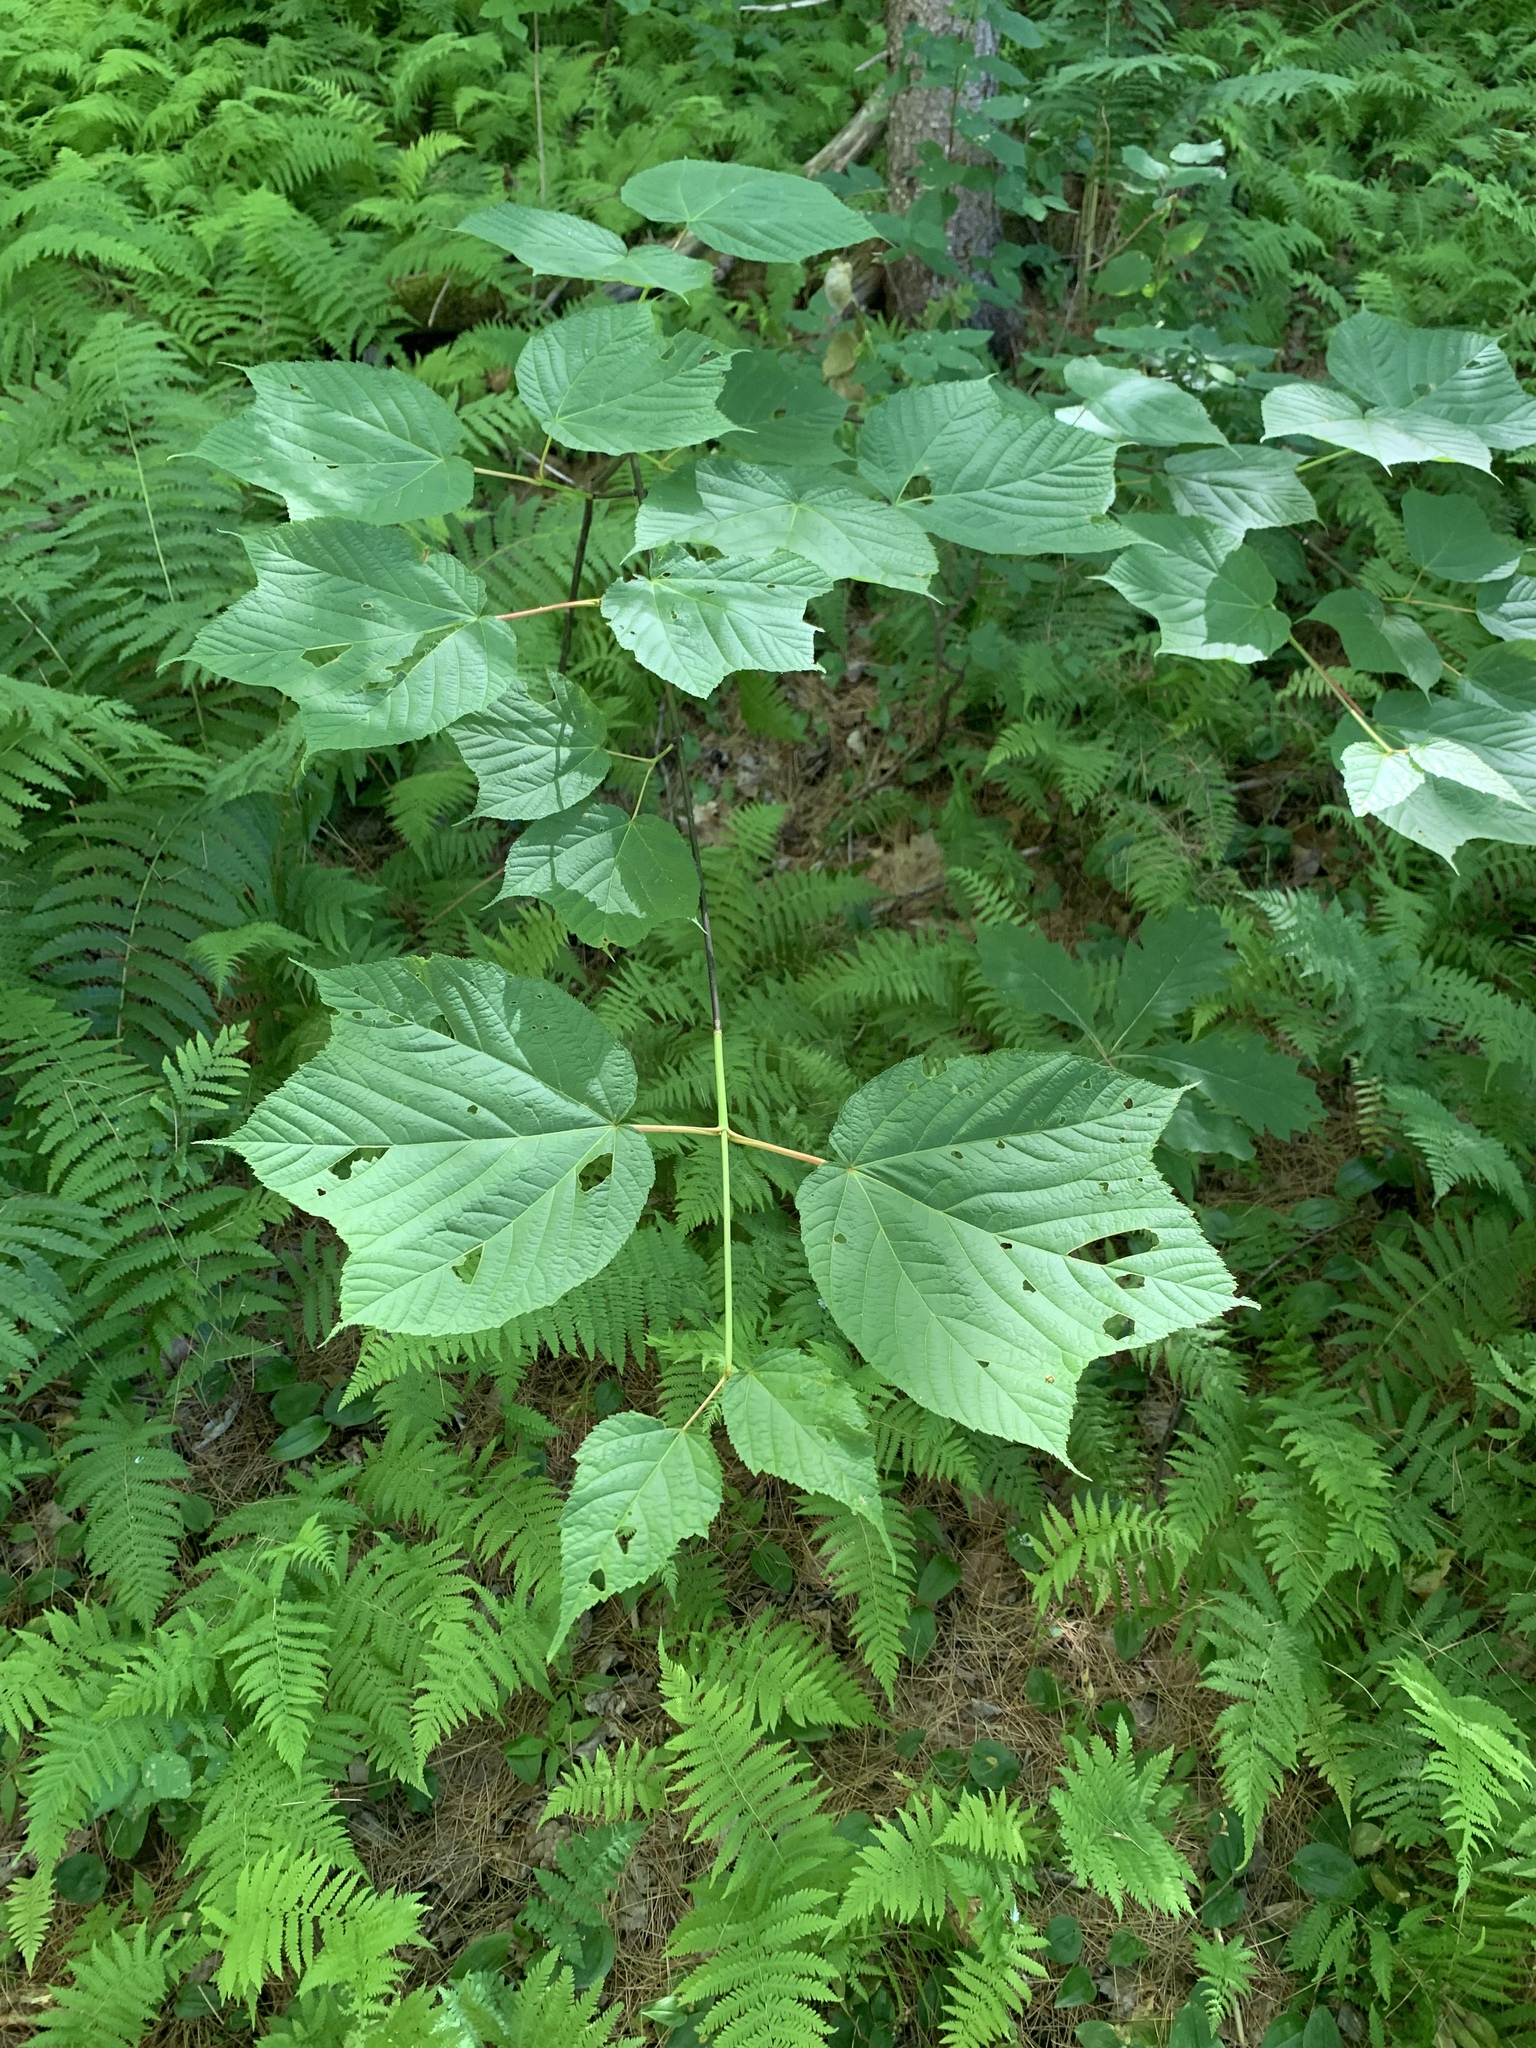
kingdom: Plantae
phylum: Tracheophyta
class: Magnoliopsida
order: Sapindales
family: Sapindaceae
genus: Acer
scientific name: Acer pensylvanicum
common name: Moosewood
